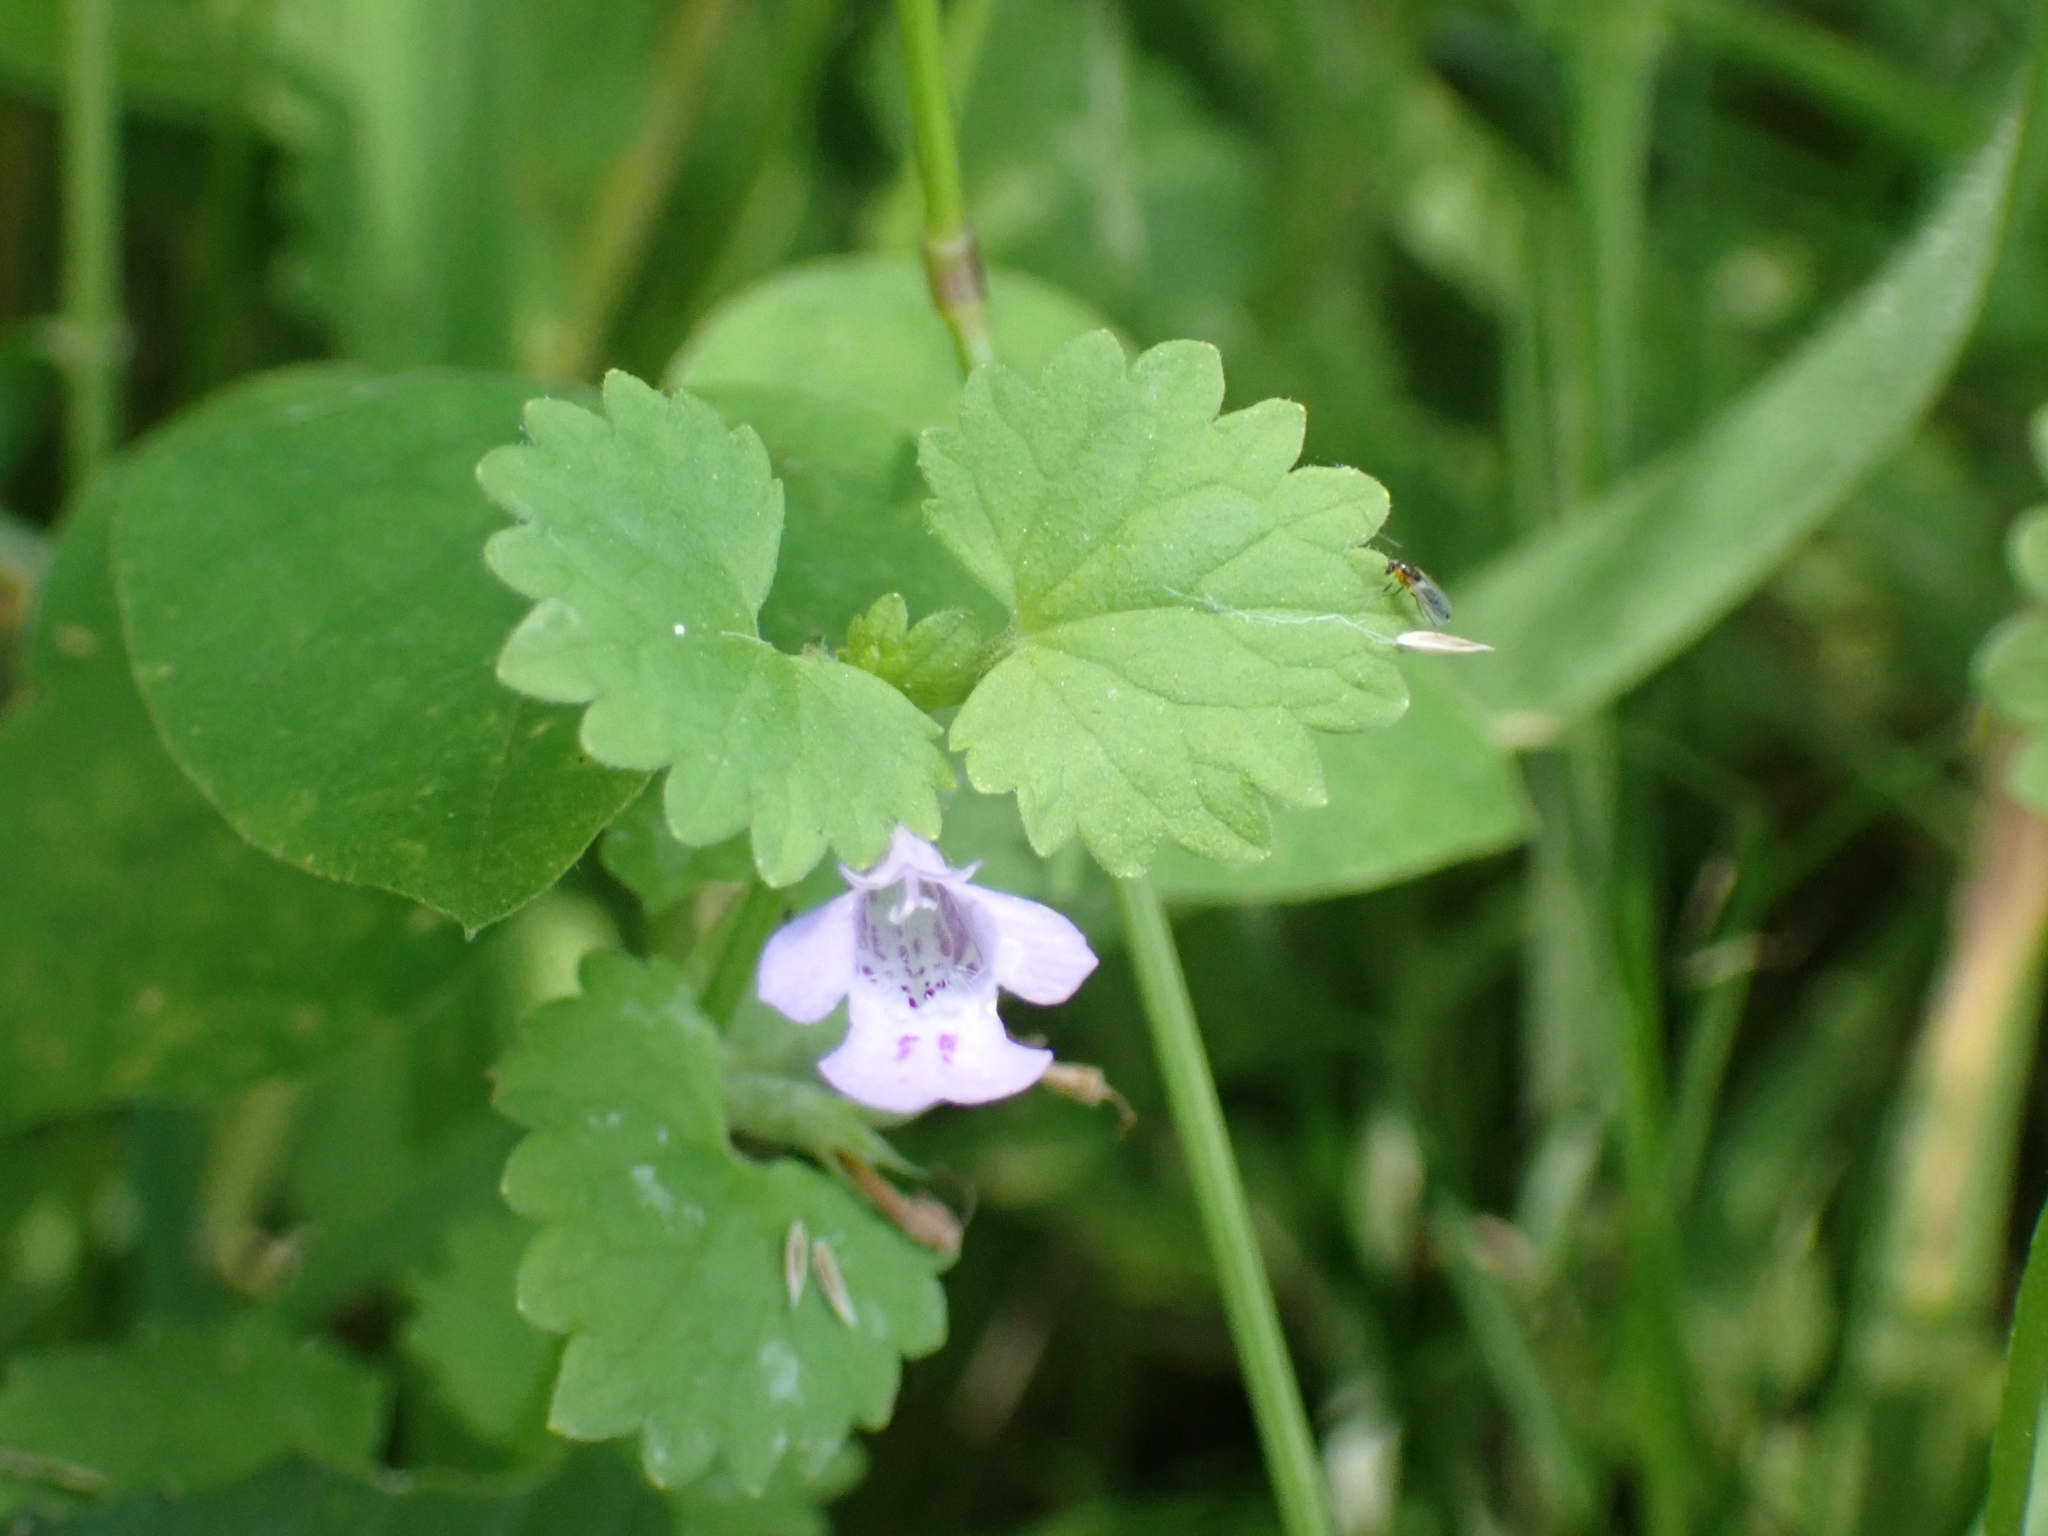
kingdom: Plantae
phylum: Tracheophyta
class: Magnoliopsida
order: Lamiales
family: Lamiaceae
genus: Glechoma
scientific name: Glechoma hederacea
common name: Ground ivy
